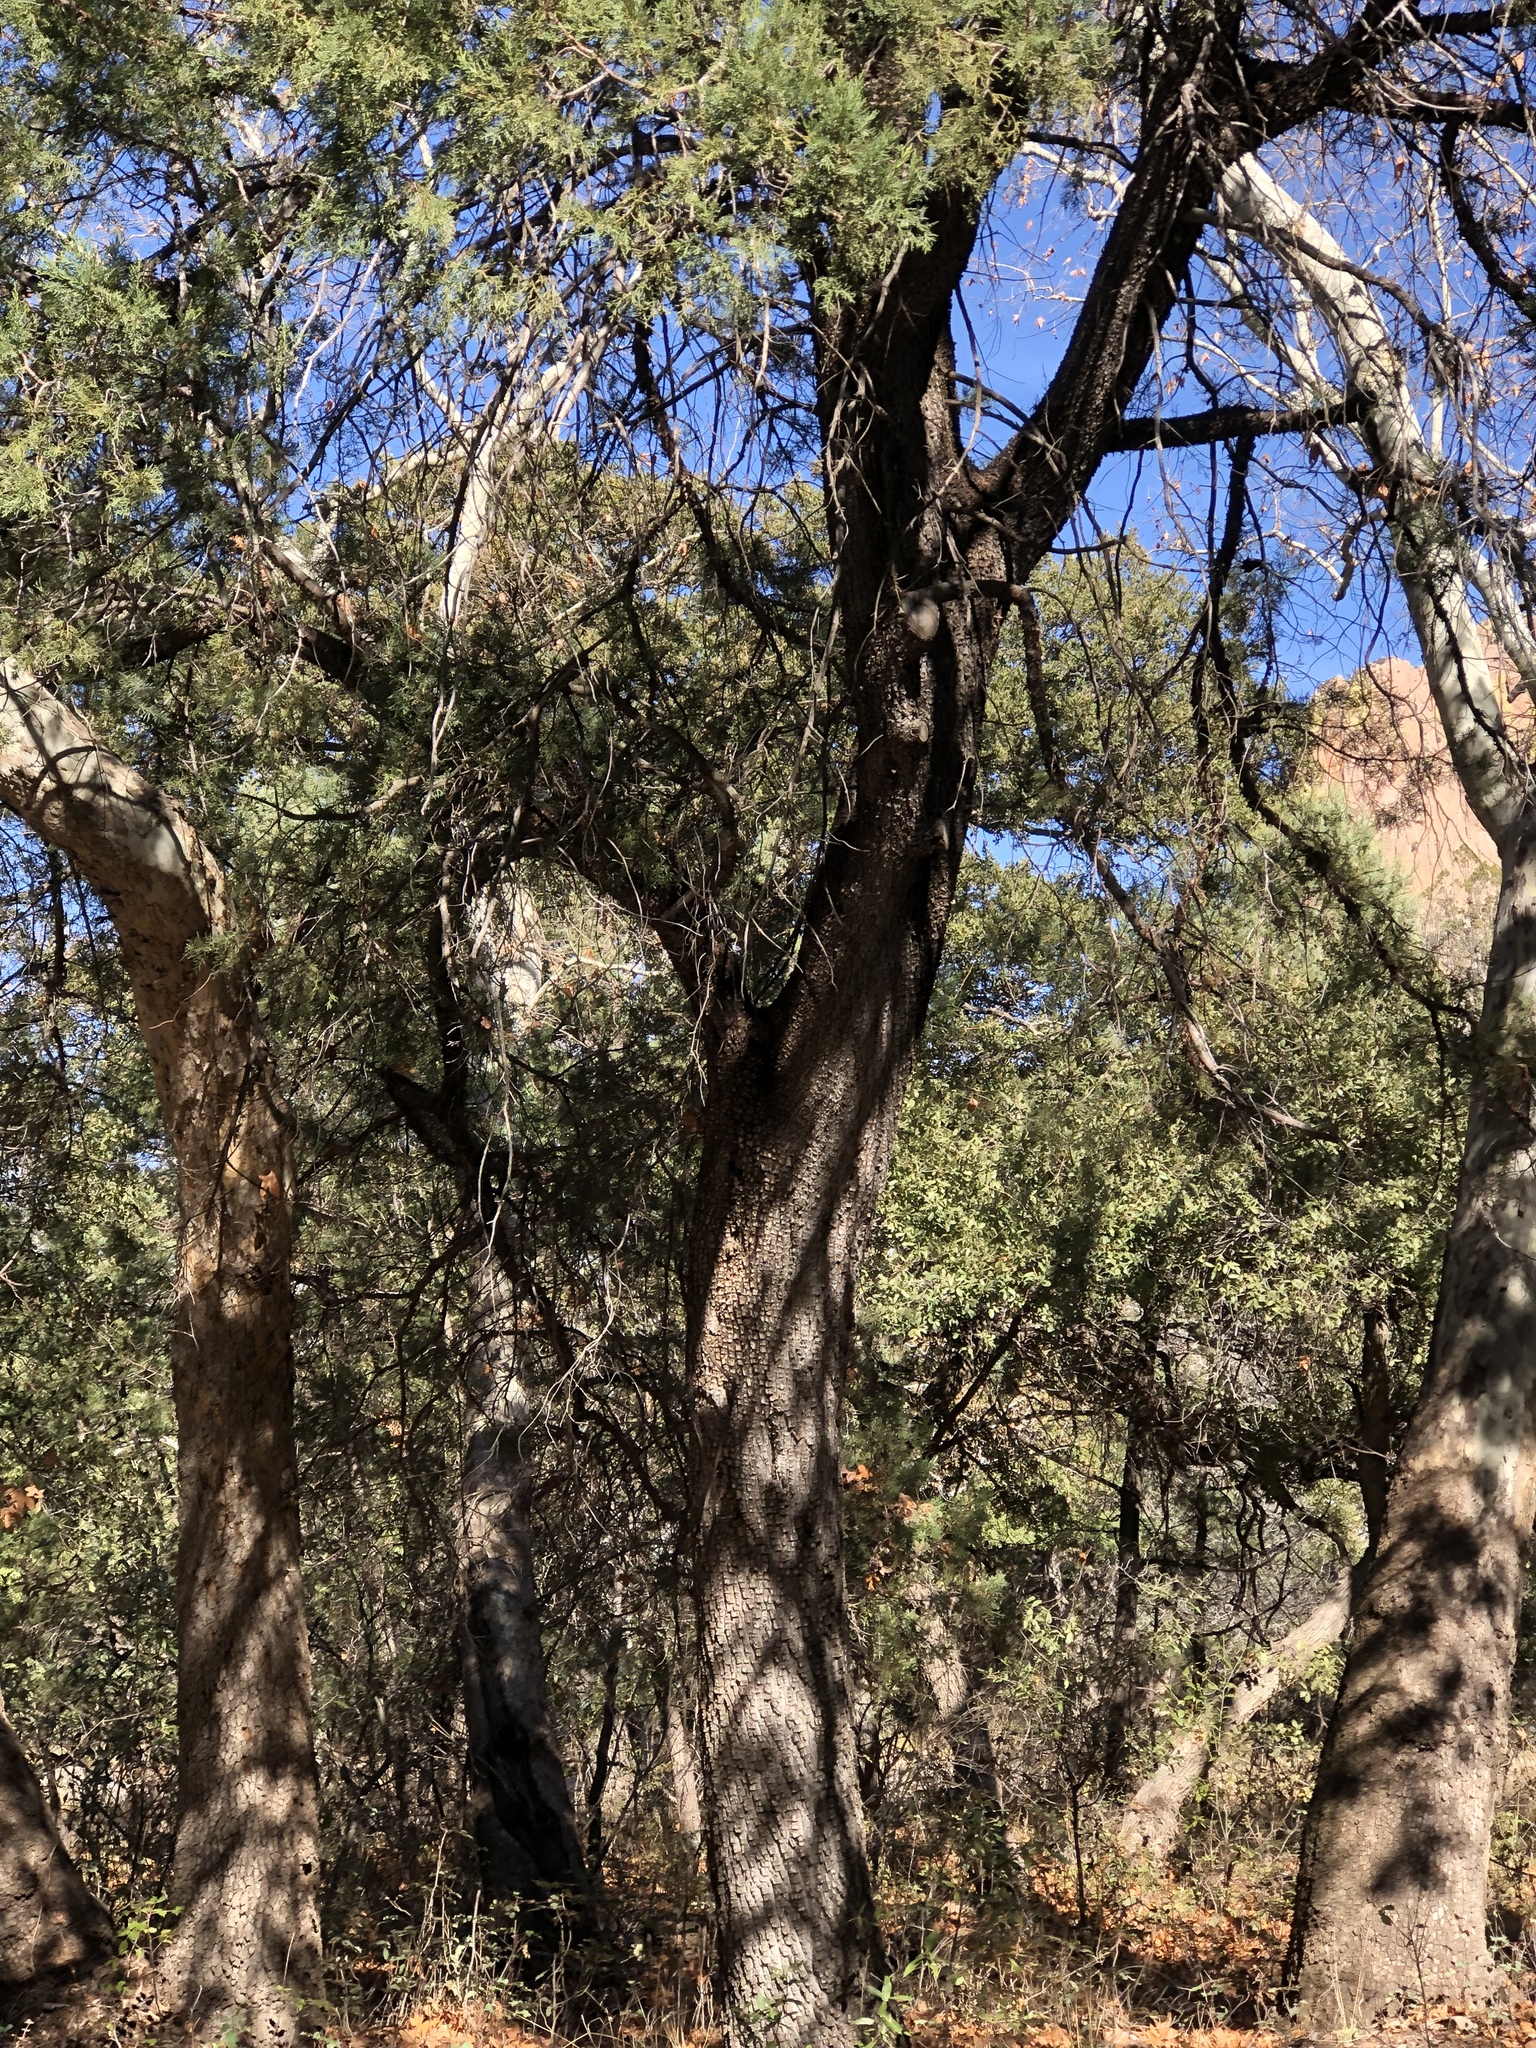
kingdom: Plantae
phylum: Tracheophyta
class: Pinopsida
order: Pinales
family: Cupressaceae
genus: Juniperus
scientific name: Juniperus deppeana
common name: Alligator juniper
